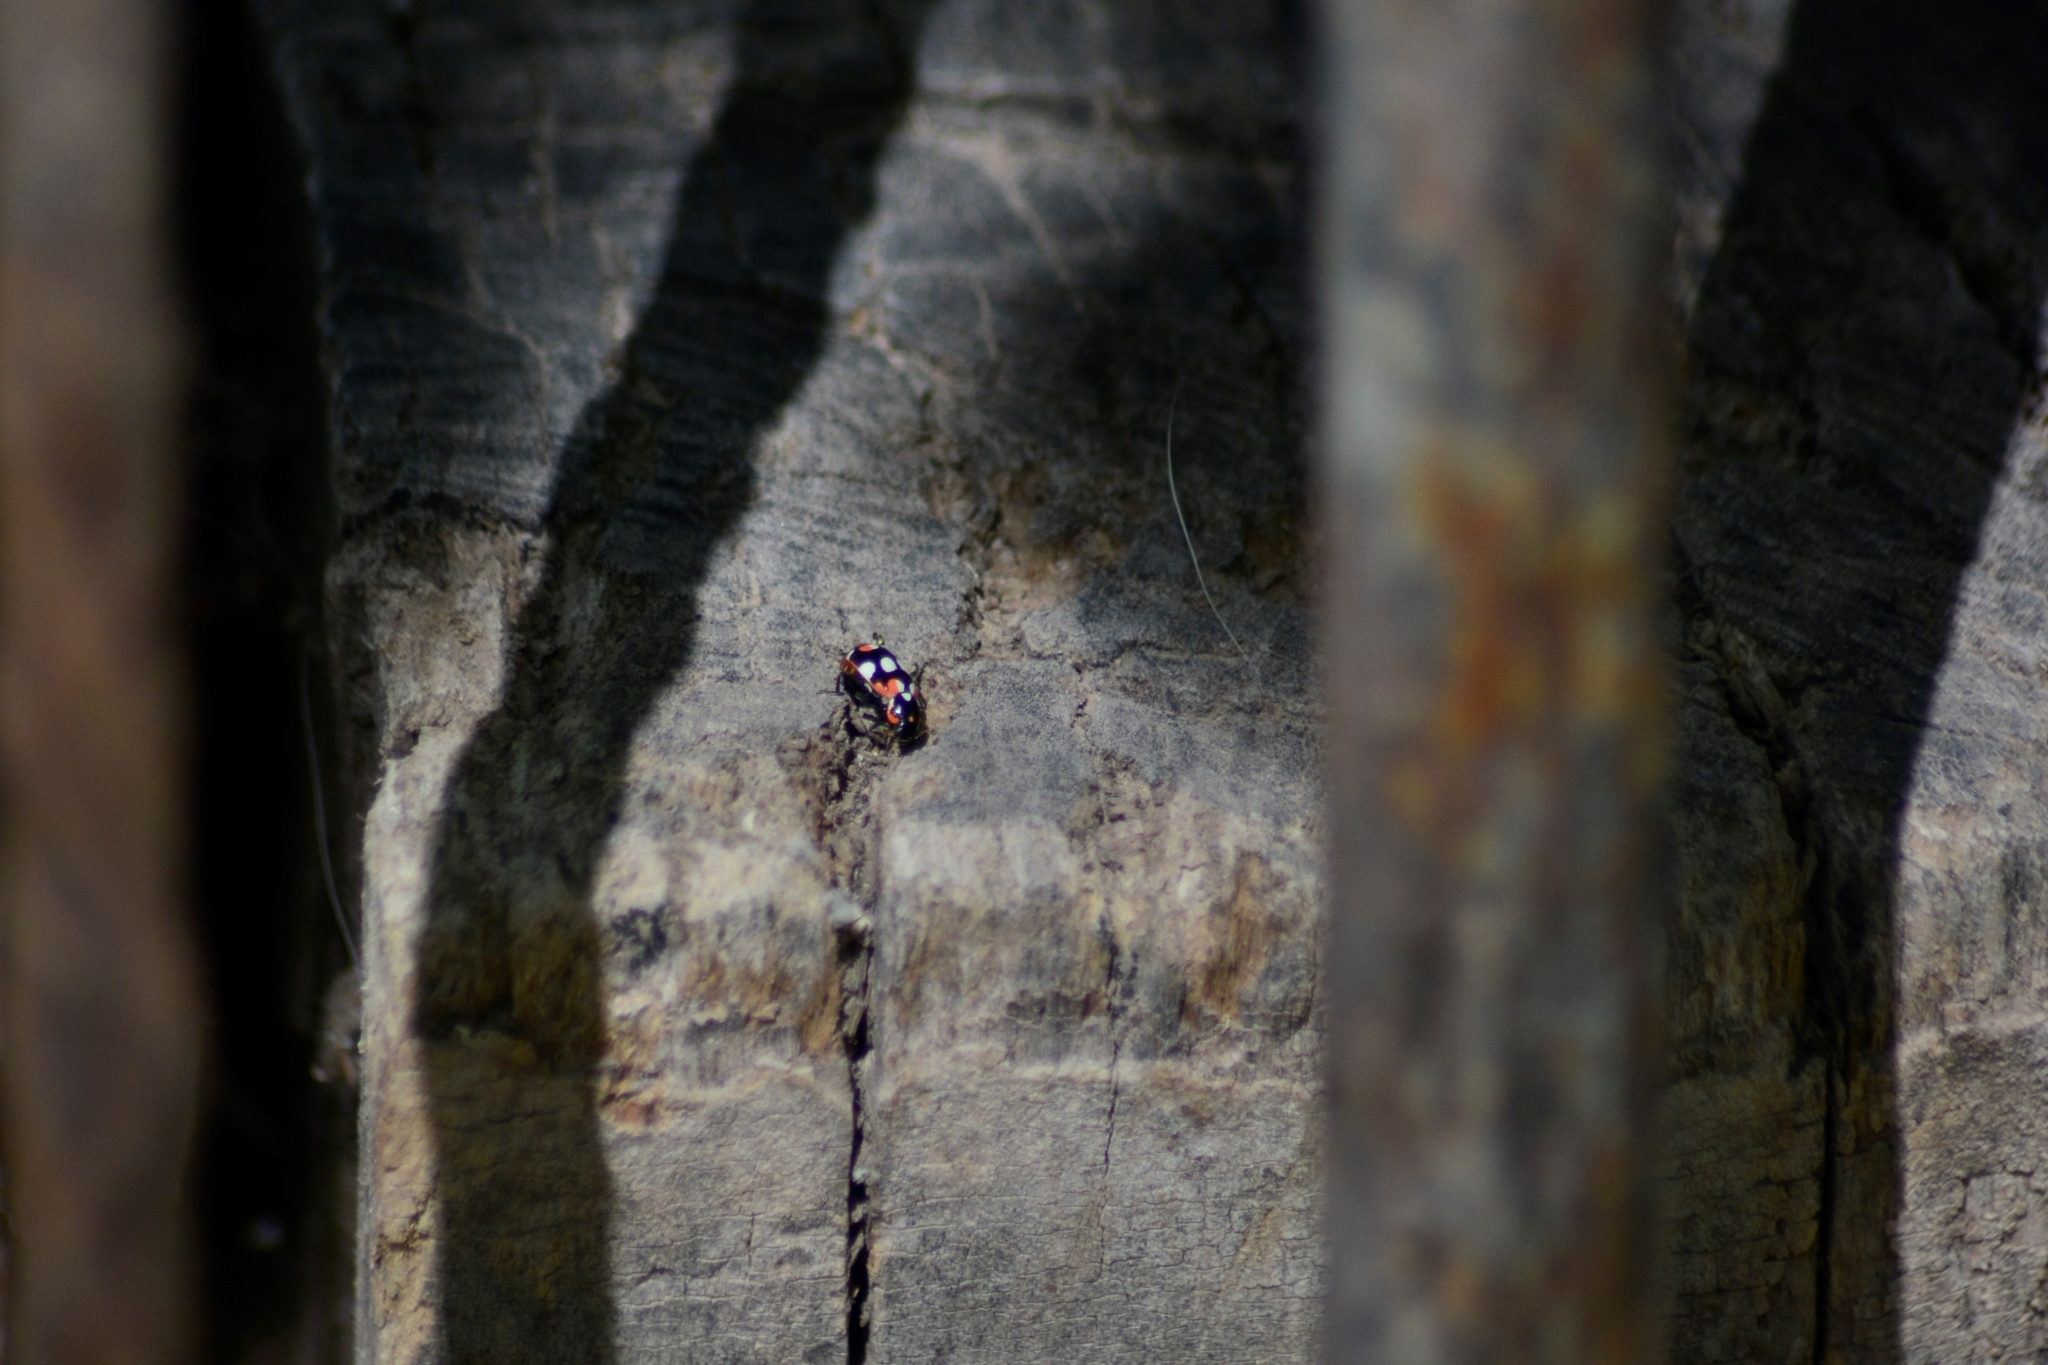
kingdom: Animalia
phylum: Arthropoda
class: Insecta
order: Coleoptera
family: Coccinellidae
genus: Eriopis
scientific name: Eriopis connexa
